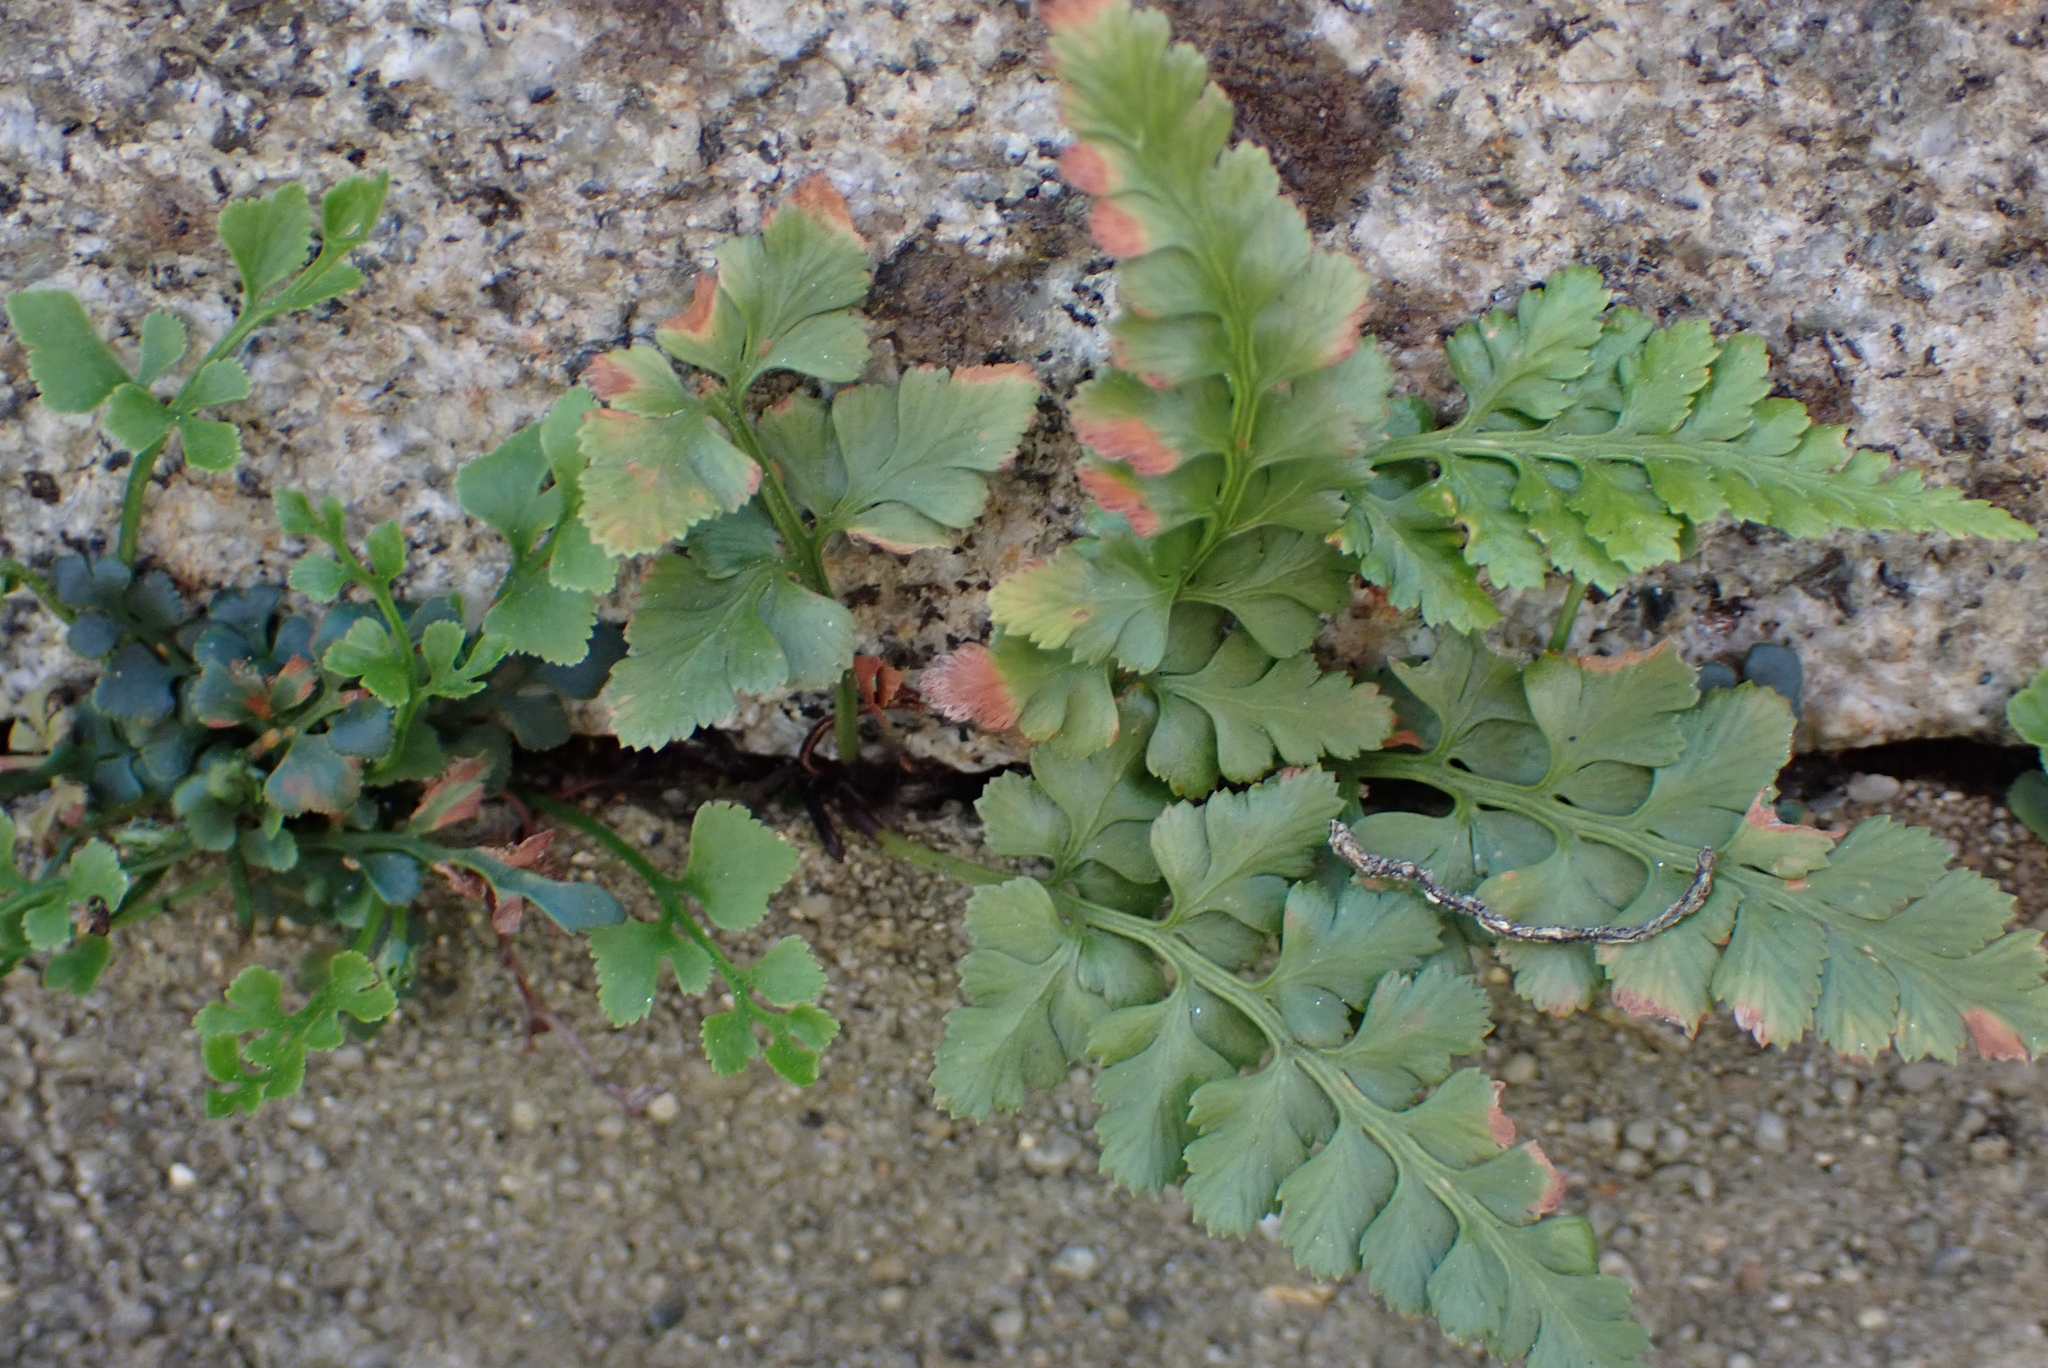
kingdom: Plantae
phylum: Tracheophyta
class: Polypodiopsida
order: Polypodiales
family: Aspleniaceae
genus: Asplenium
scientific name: Asplenium adiantum-nigrum
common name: Black spleenwort
